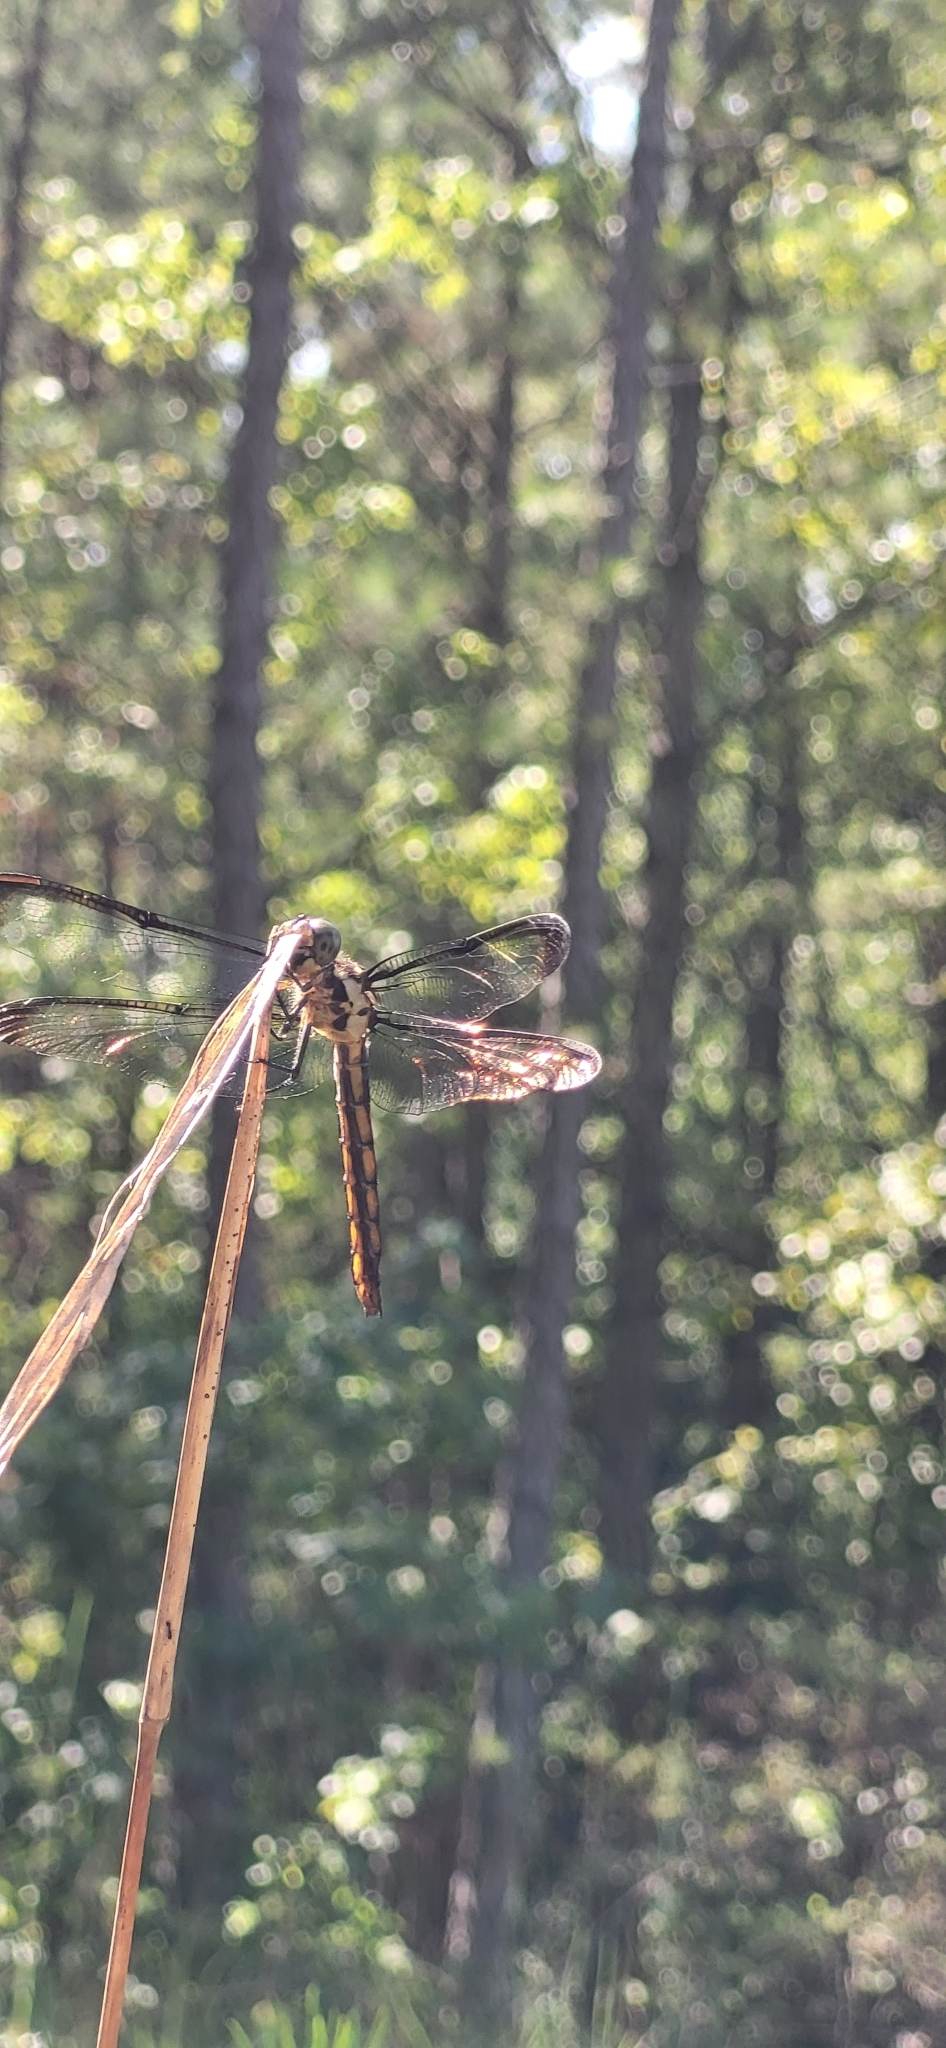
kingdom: Animalia
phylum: Arthropoda
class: Insecta
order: Odonata
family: Libellulidae
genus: Libellula
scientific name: Libellula incesta
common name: Slaty skimmer
